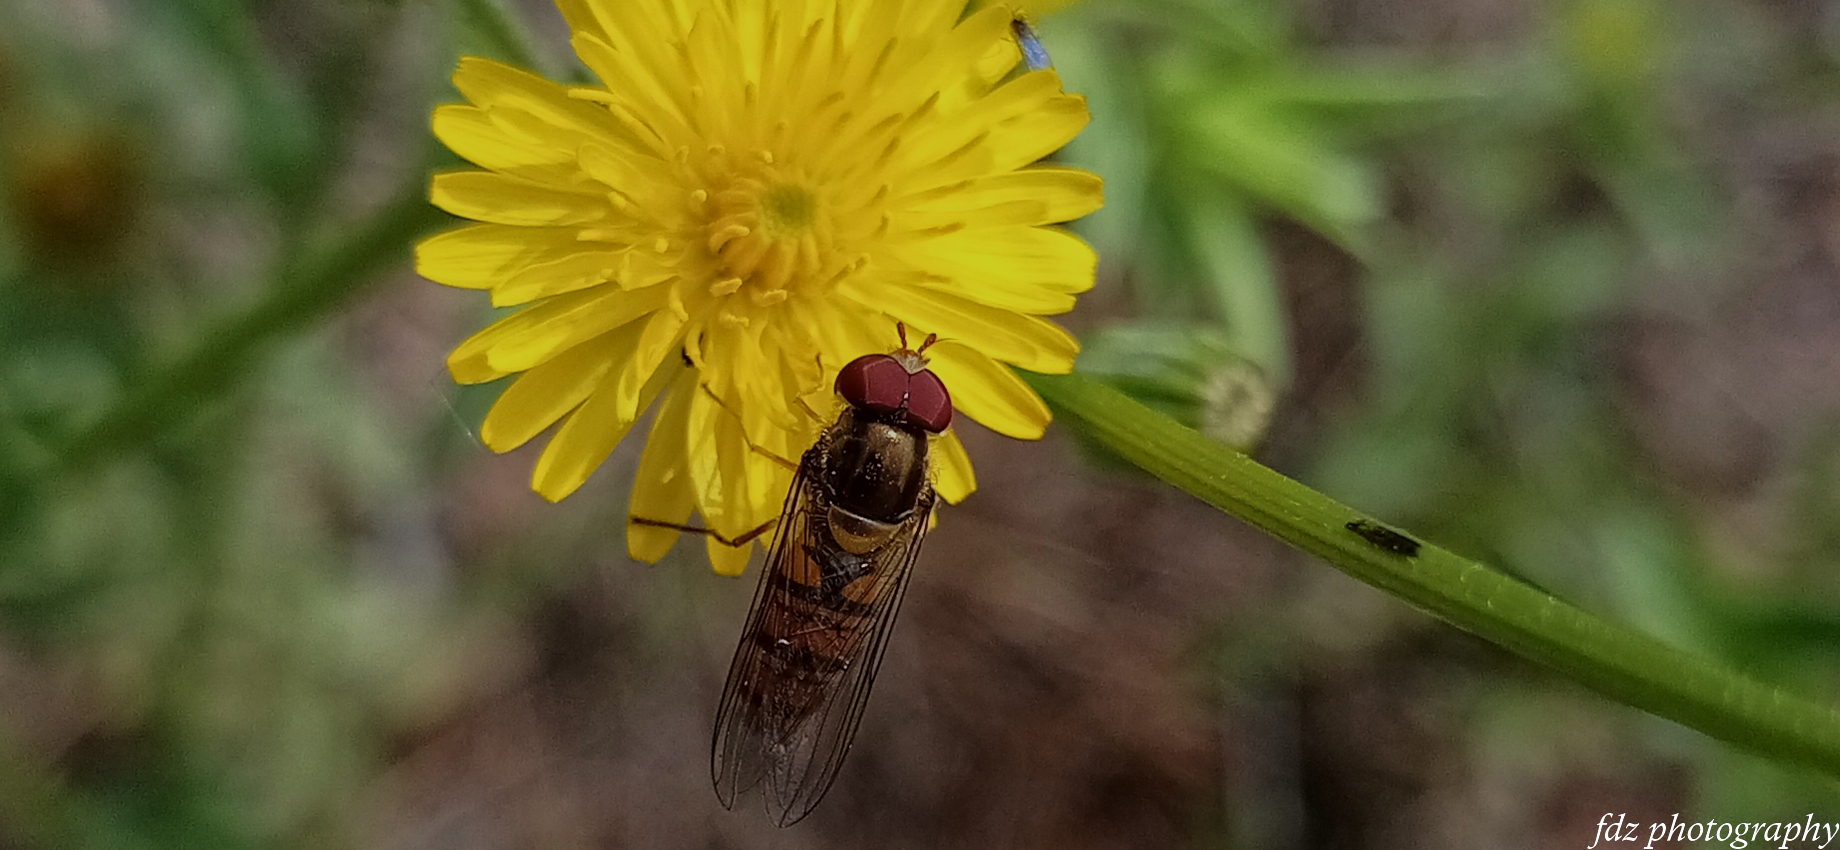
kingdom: Animalia
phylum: Arthropoda
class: Insecta
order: Diptera
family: Syrphidae
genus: Episyrphus
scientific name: Episyrphus balteatus
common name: Marmalade hoverfly
